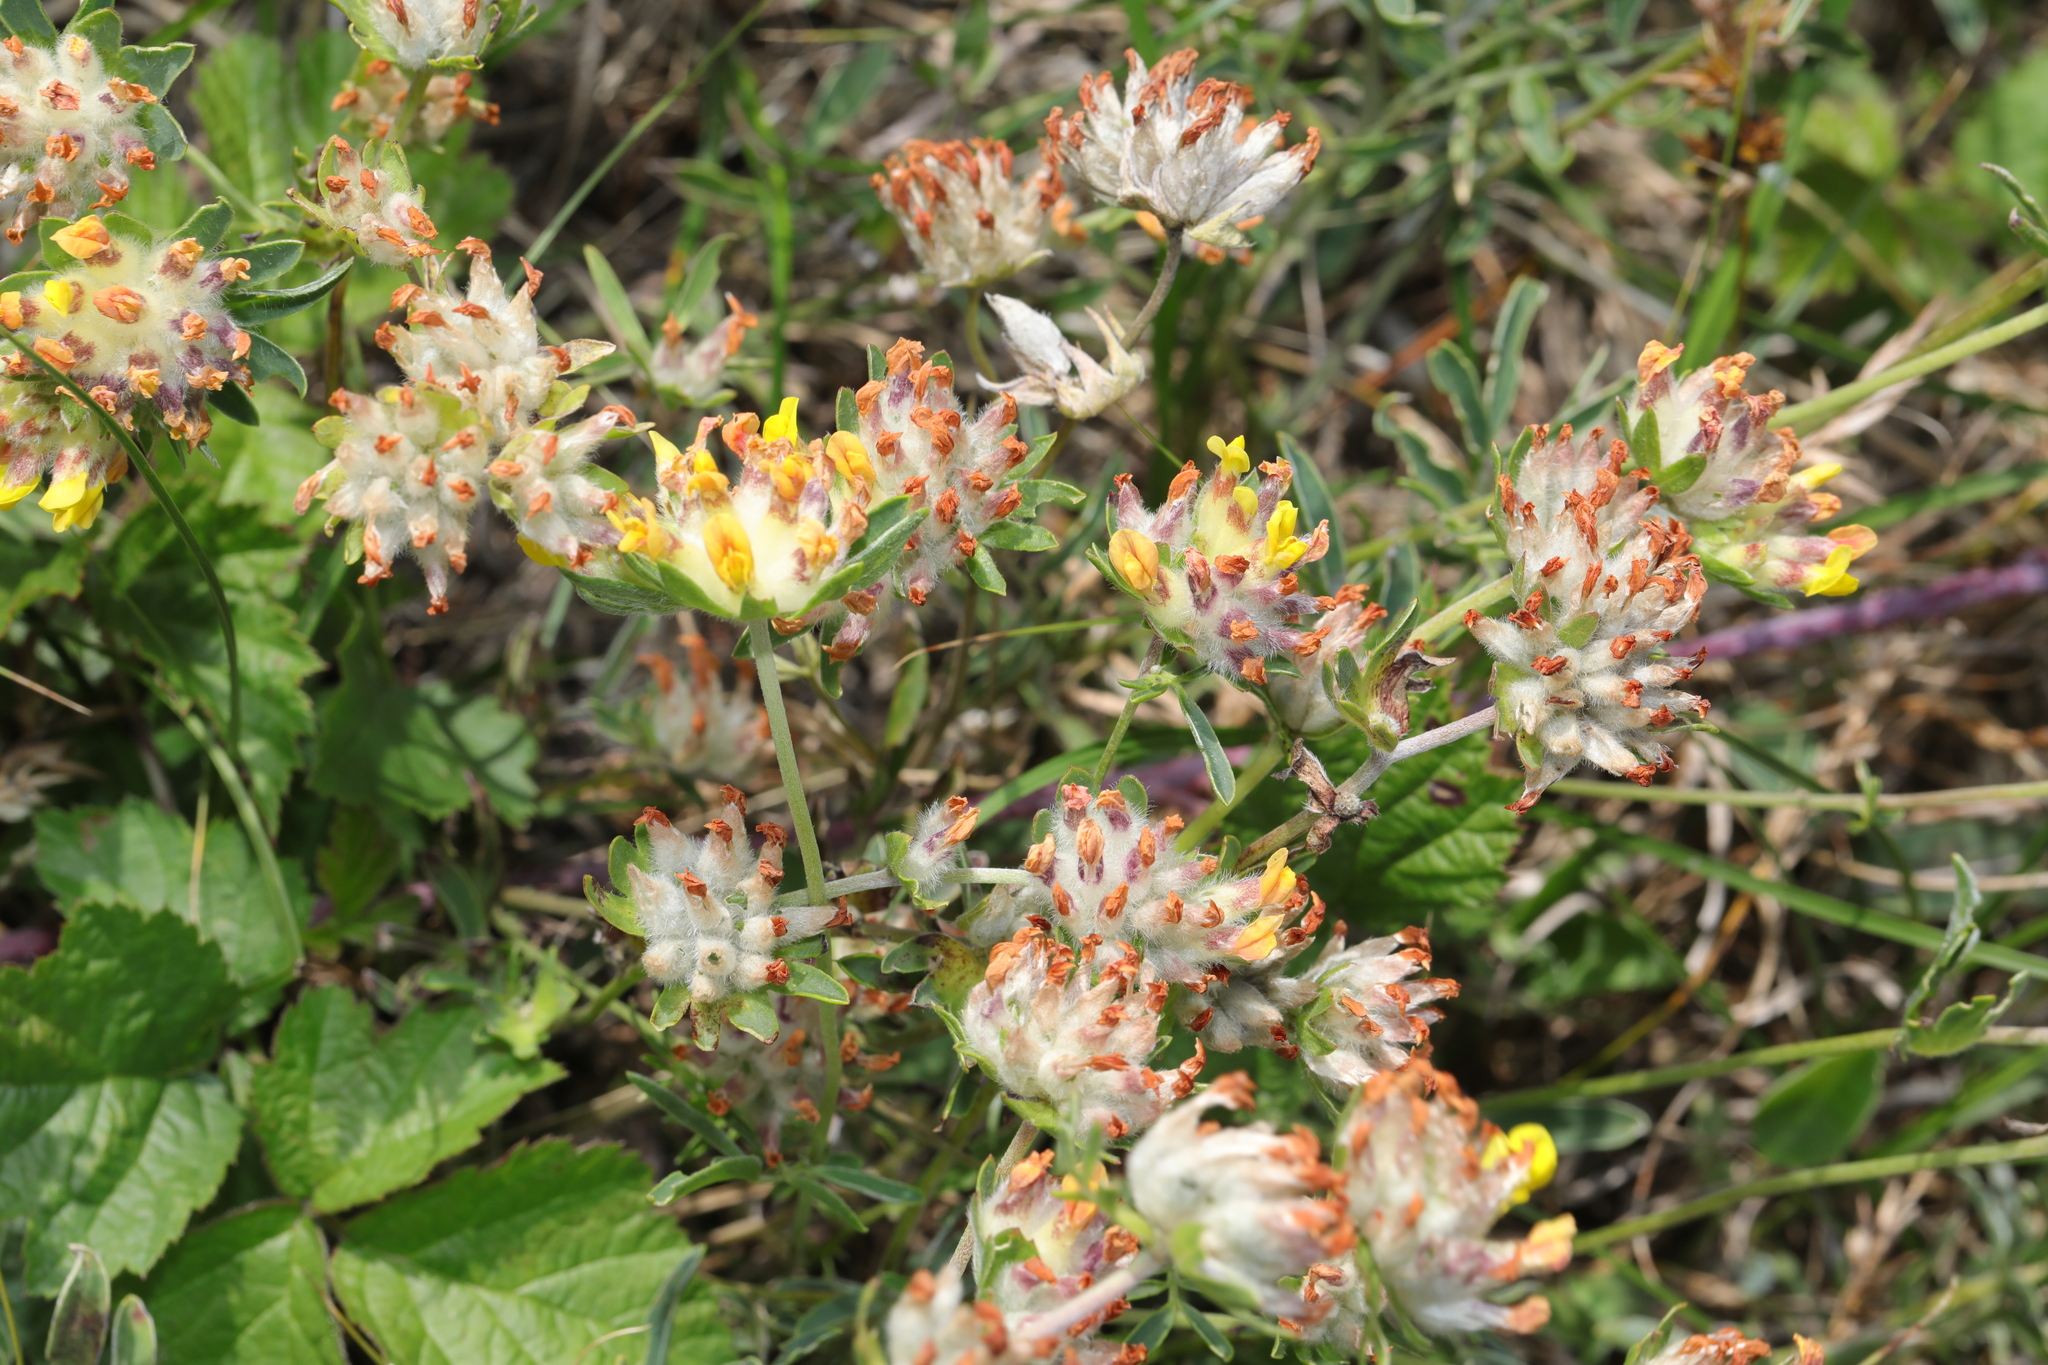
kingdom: Plantae
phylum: Tracheophyta
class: Magnoliopsida
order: Fabales
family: Fabaceae
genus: Anthyllis
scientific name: Anthyllis vulneraria
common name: Kidney vetch
